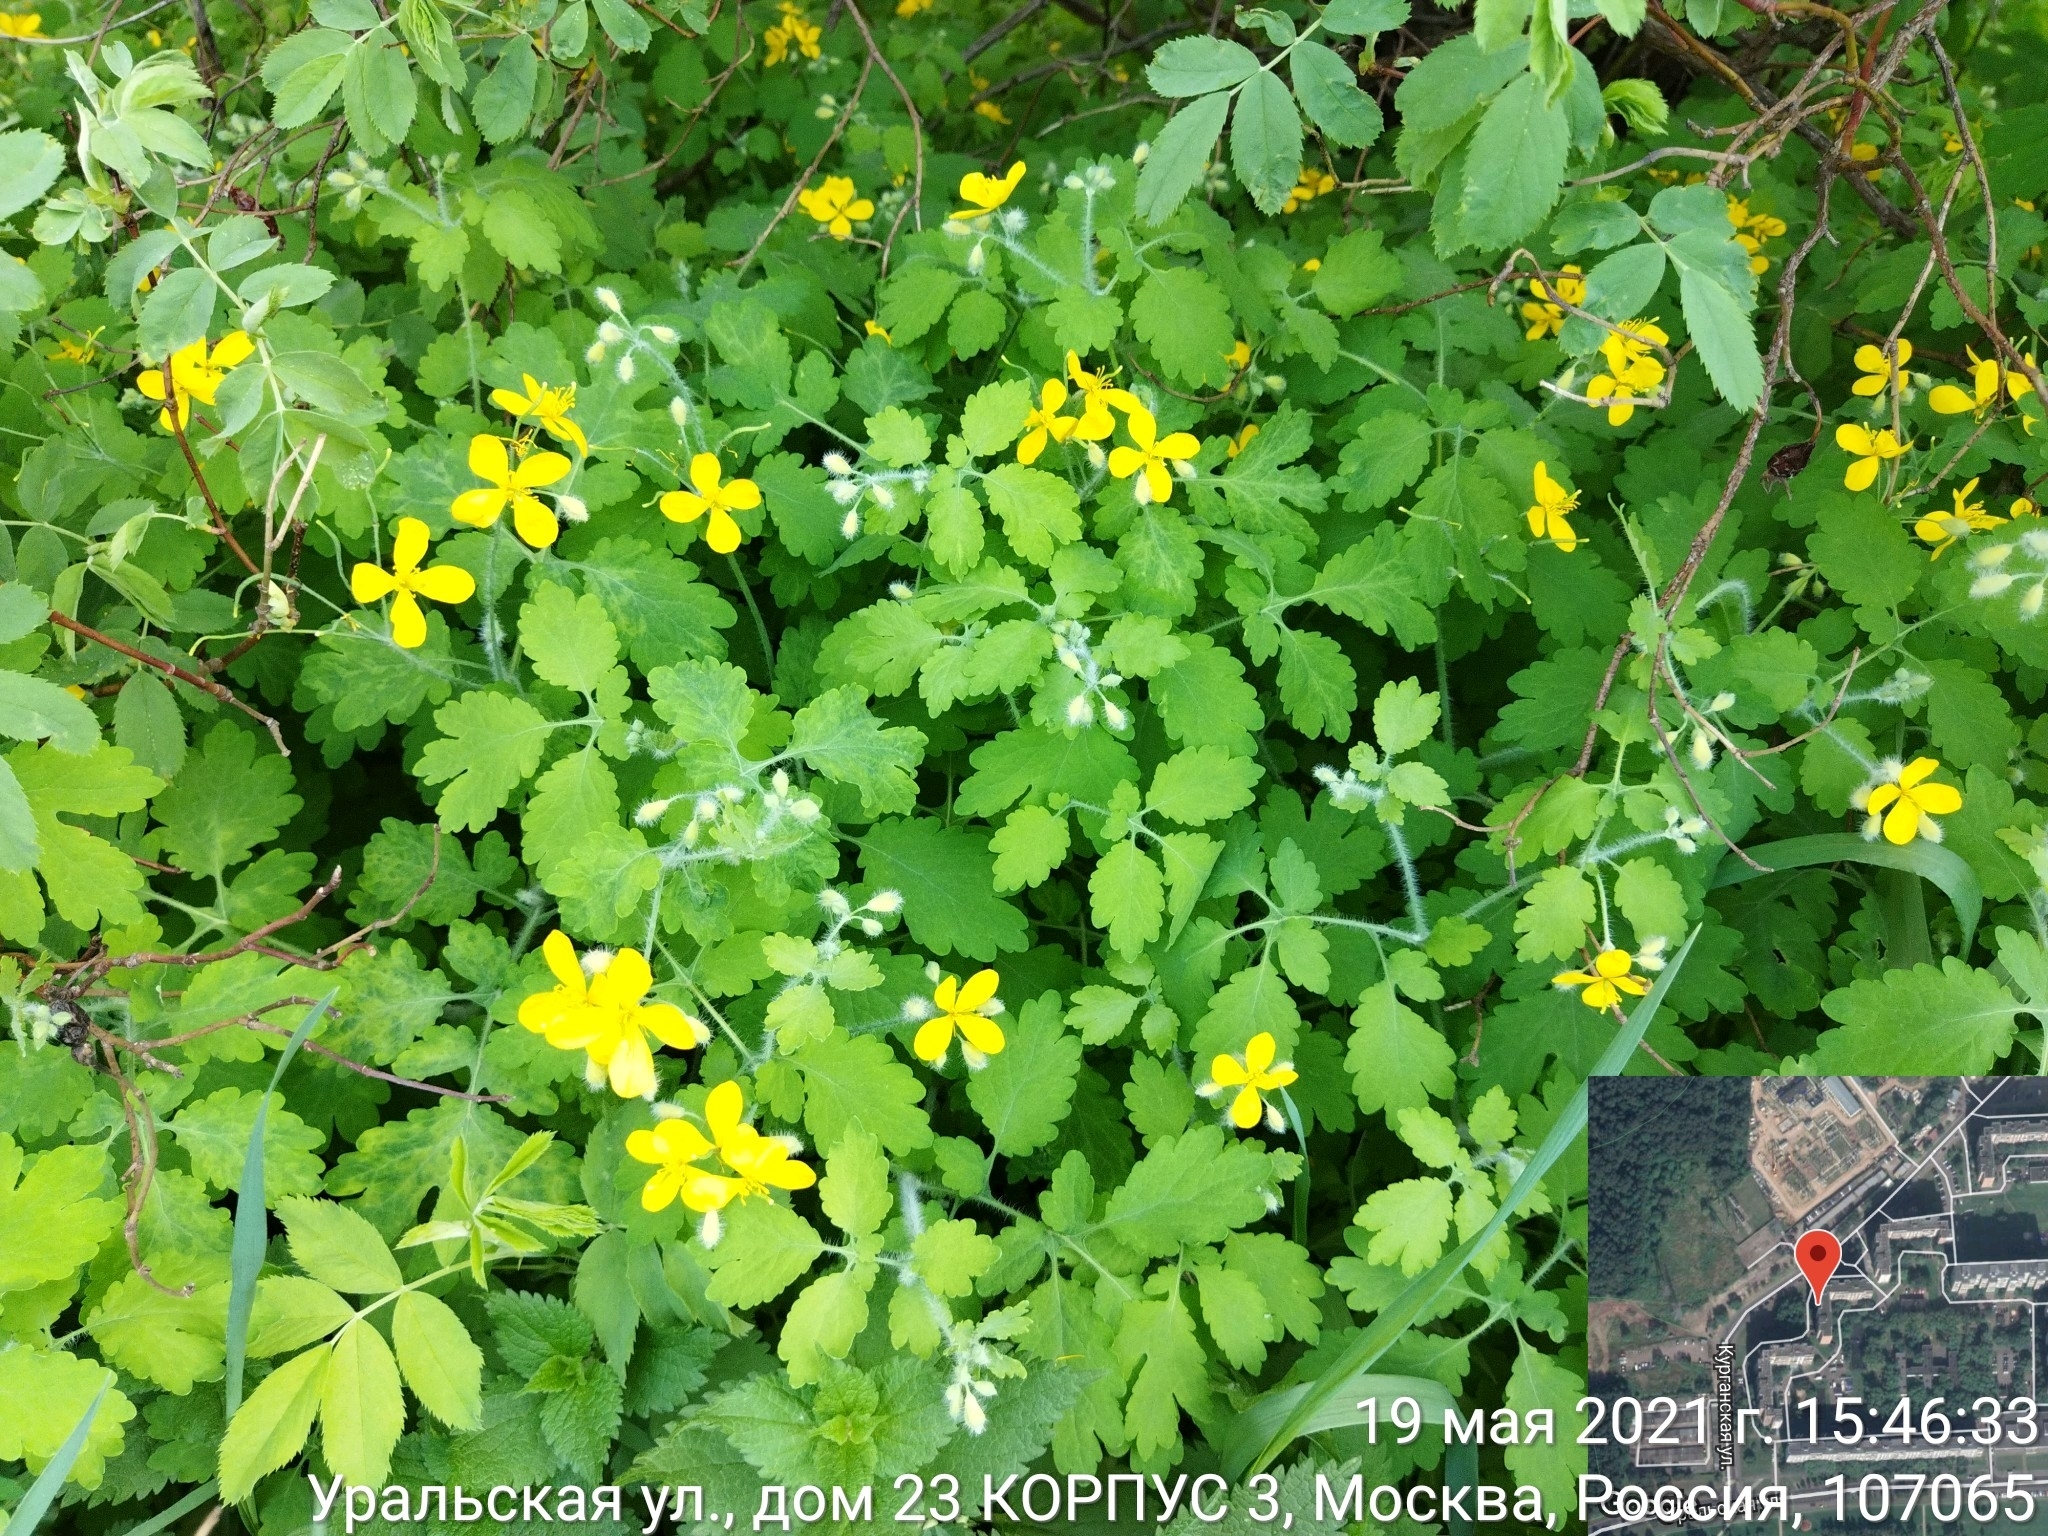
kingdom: Plantae
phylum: Tracheophyta
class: Magnoliopsida
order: Ranunculales
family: Papaveraceae
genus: Chelidonium
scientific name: Chelidonium majus
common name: Greater celandine
